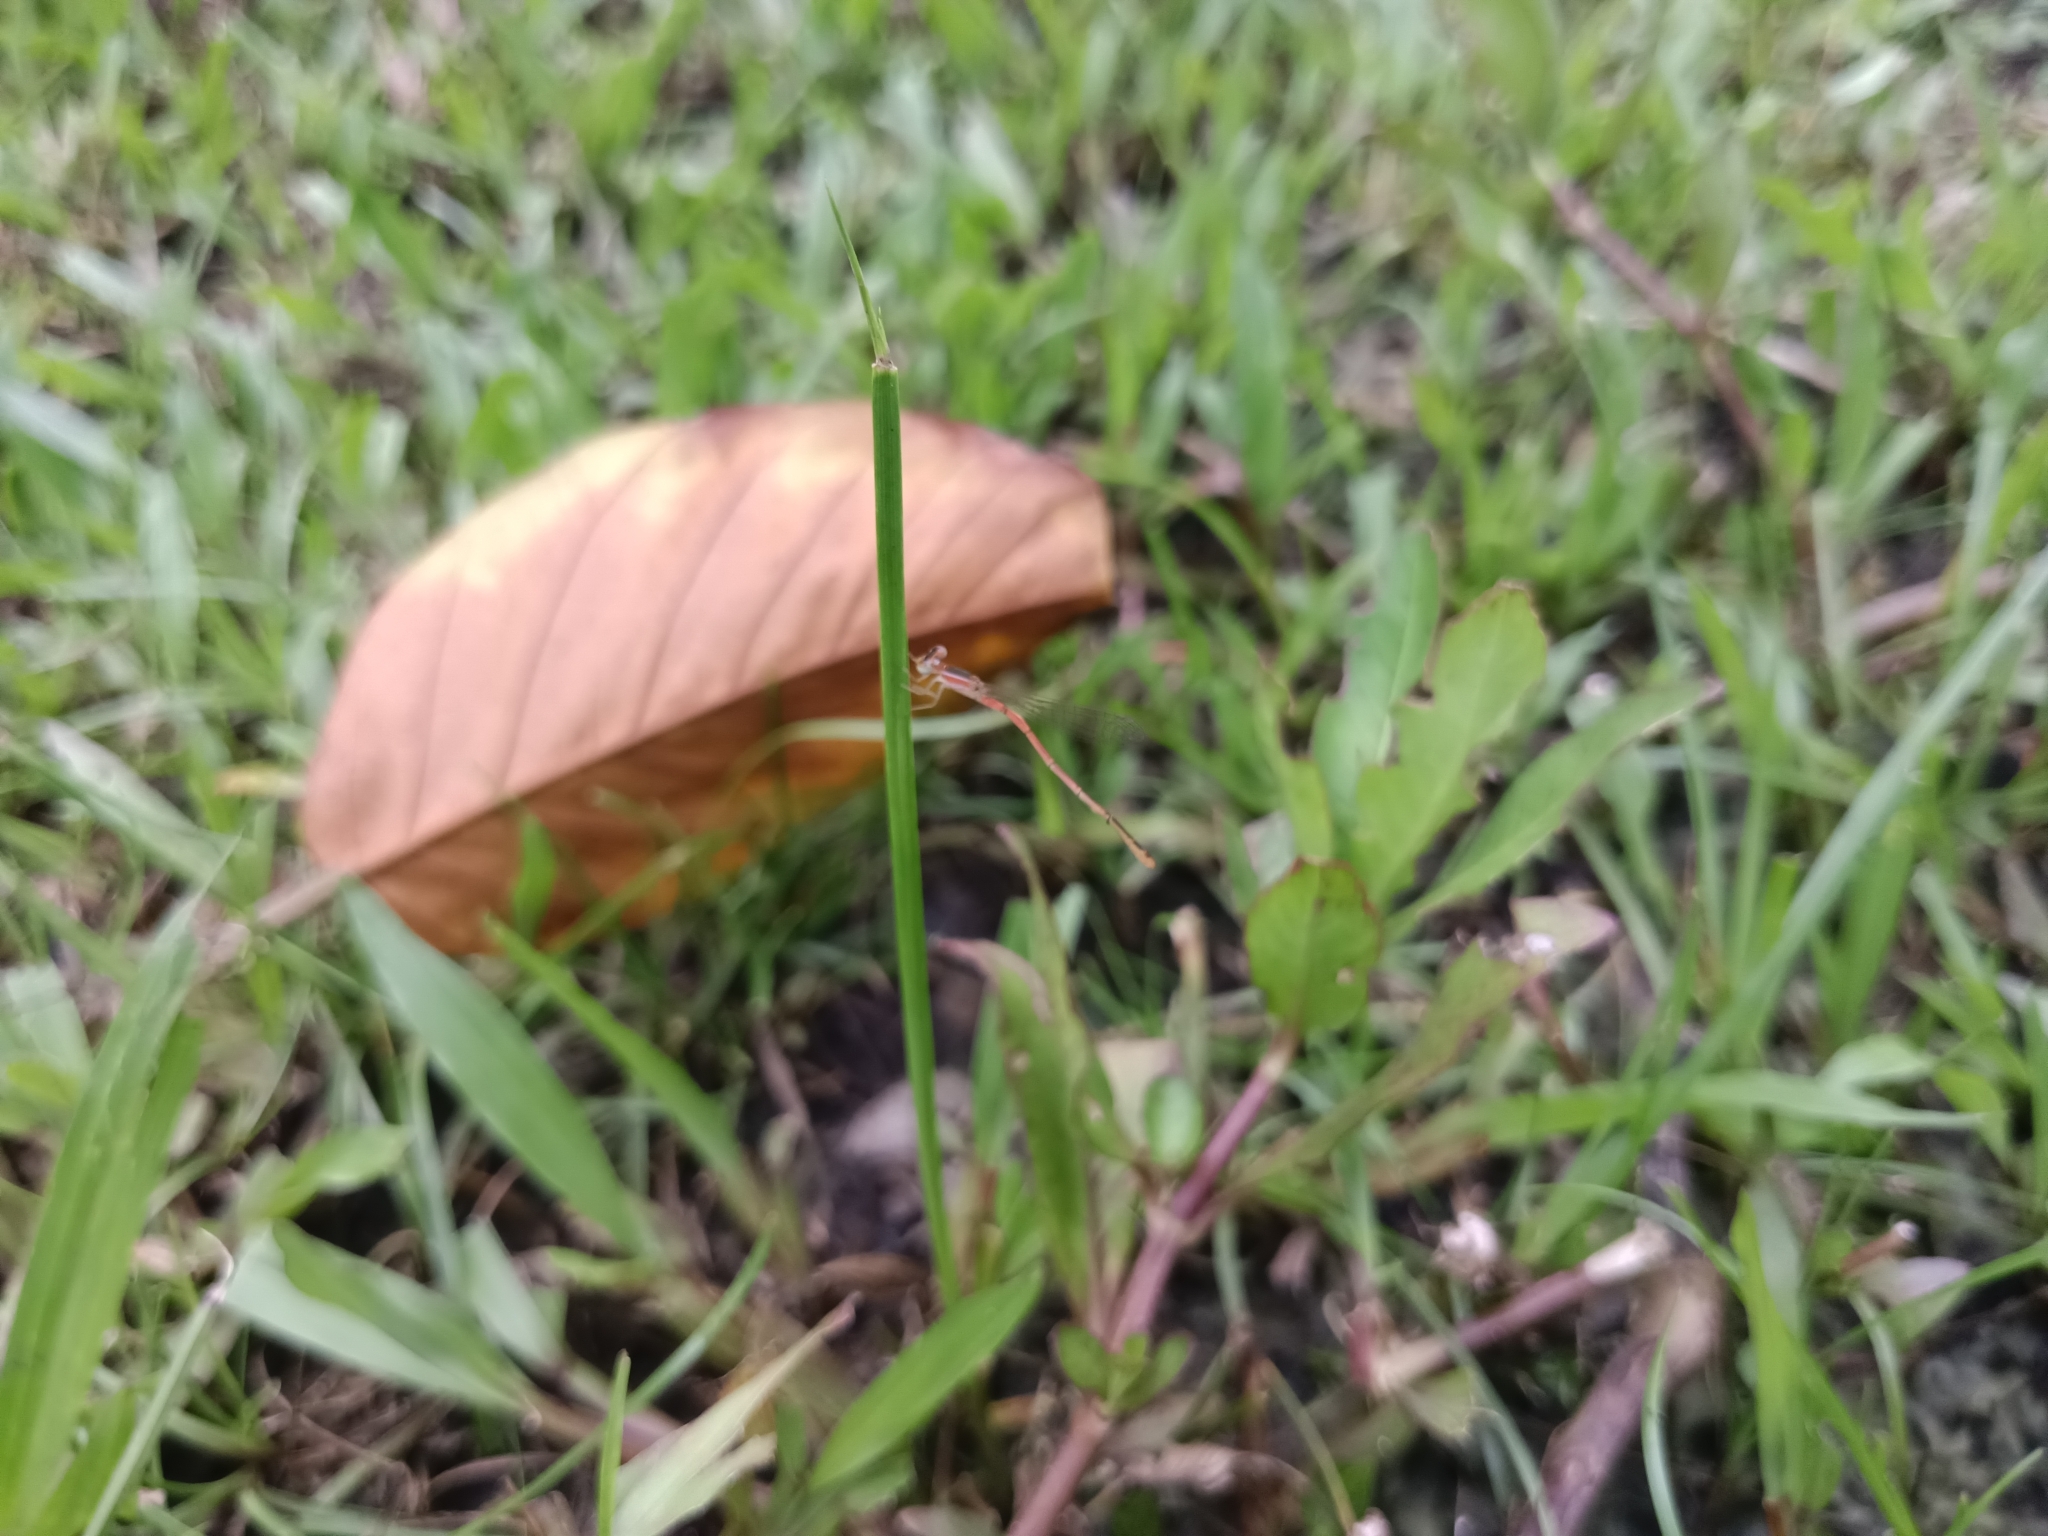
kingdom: Animalia
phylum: Arthropoda
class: Insecta
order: Odonata
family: Coenagrionidae
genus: Agriocnemis
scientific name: Agriocnemis pygmaea
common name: Pygmy wisp
